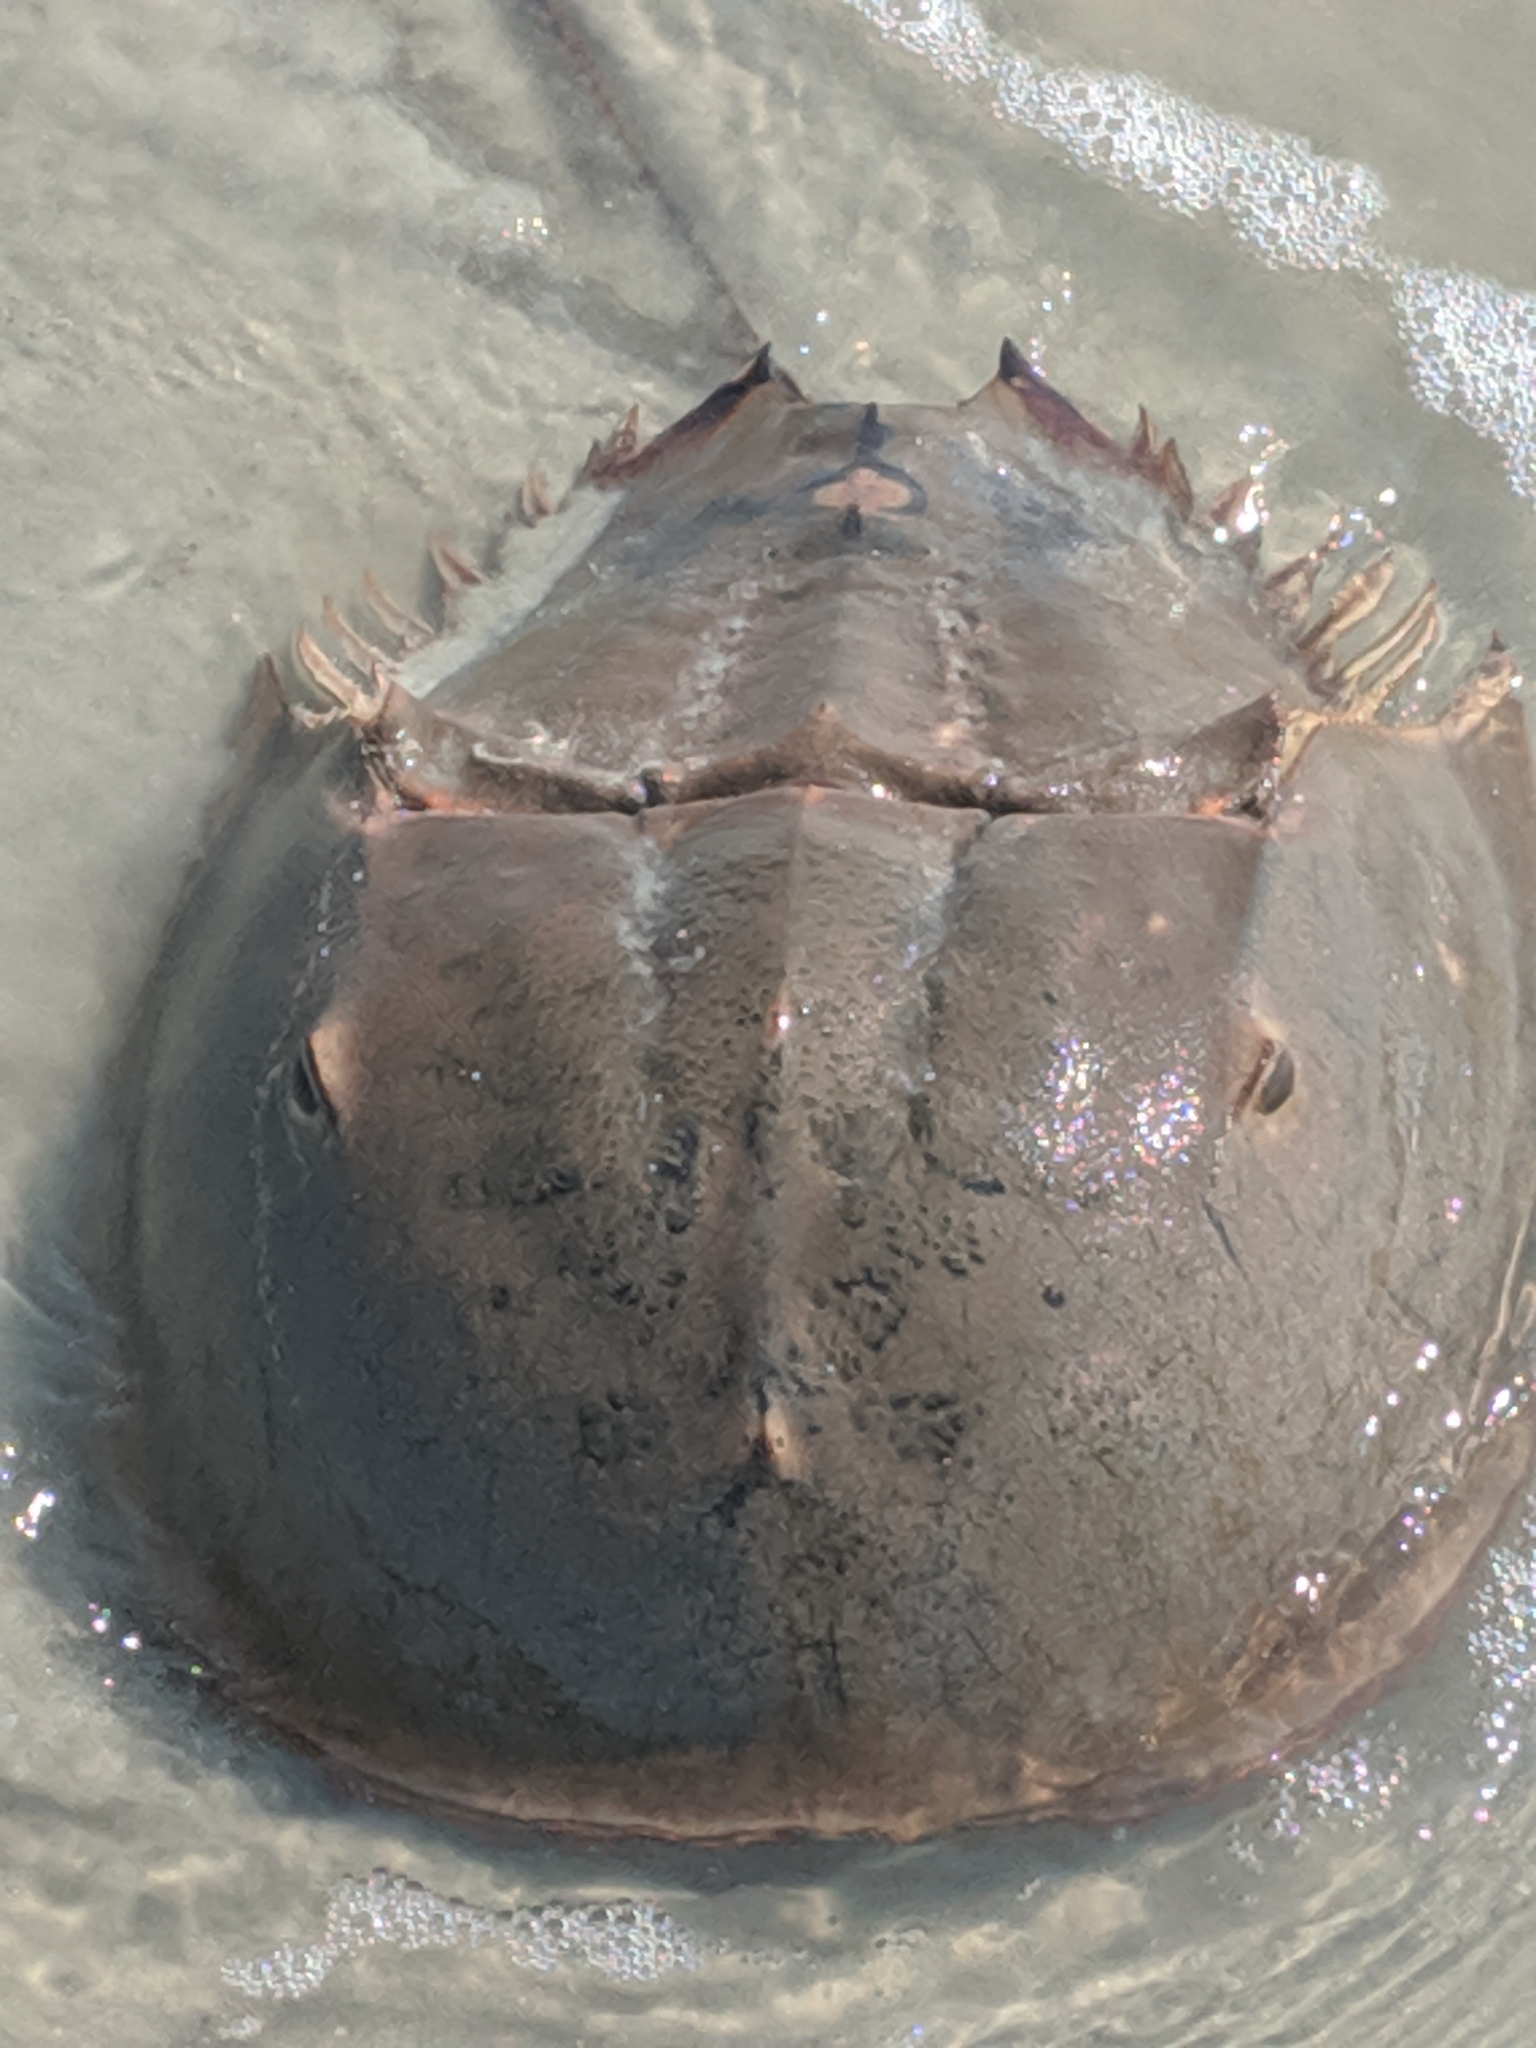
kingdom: Animalia
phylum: Arthropoda
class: Merostomata
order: Xiphosurida
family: Limulidae
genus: Limulus
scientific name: Limulus polyphemus
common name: Horseshoe crab
